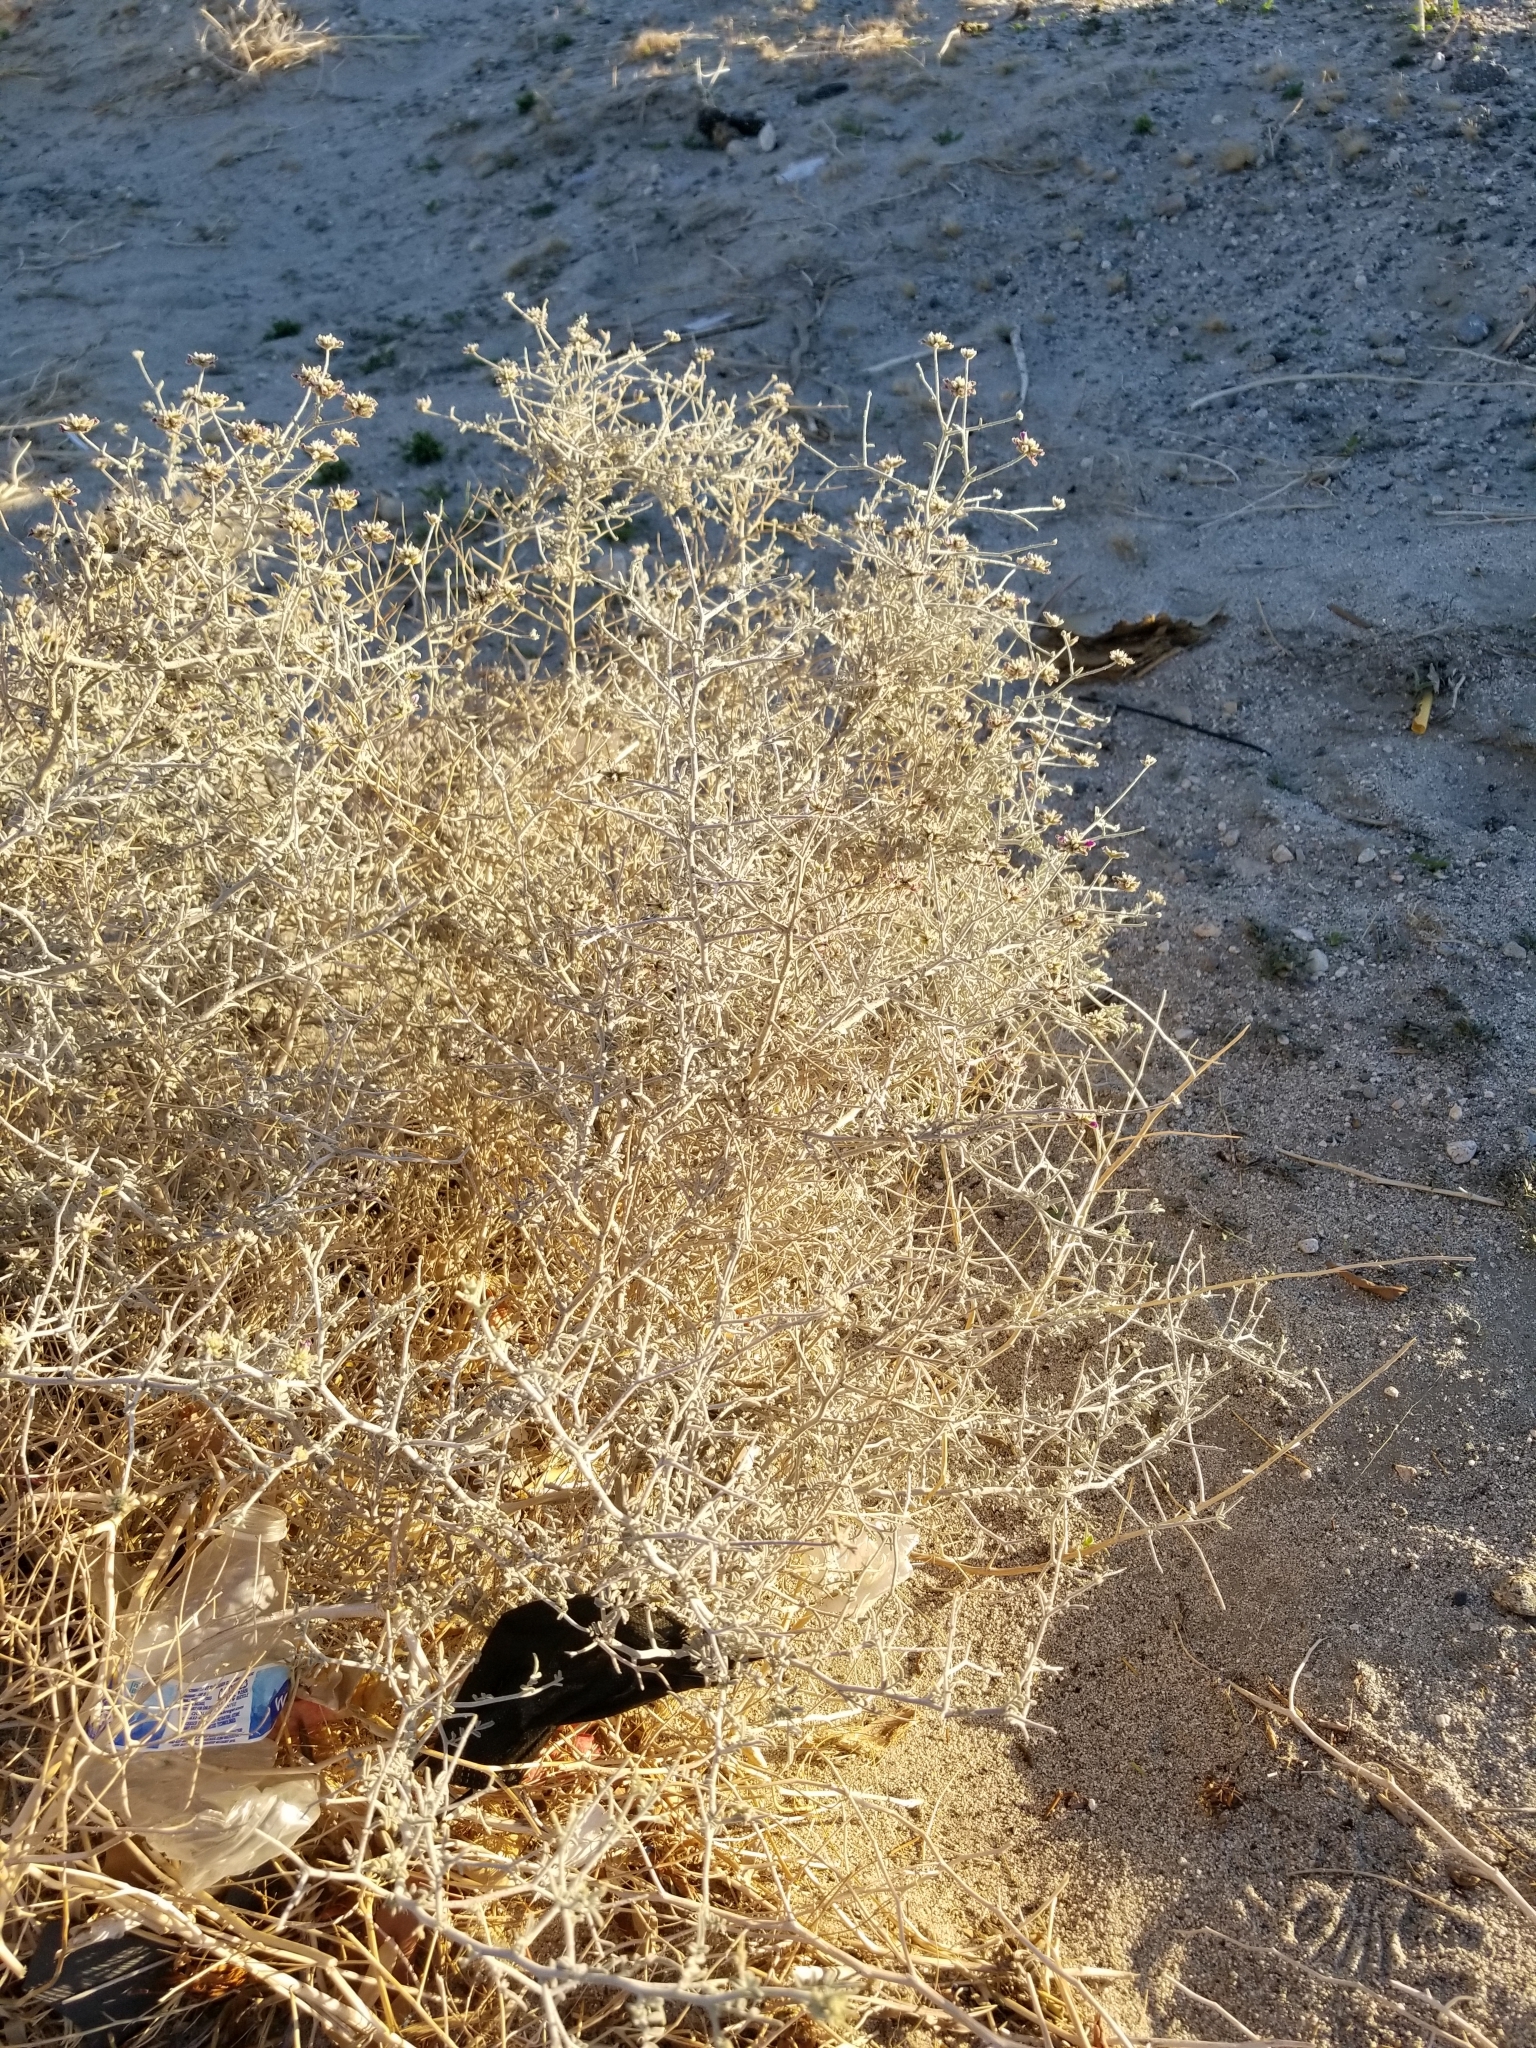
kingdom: Plantae
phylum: Tracheophyta
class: Magnoliopsida
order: Fabales
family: Fabaceae
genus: Psorothamnus
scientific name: Psorothamnus emoryi
